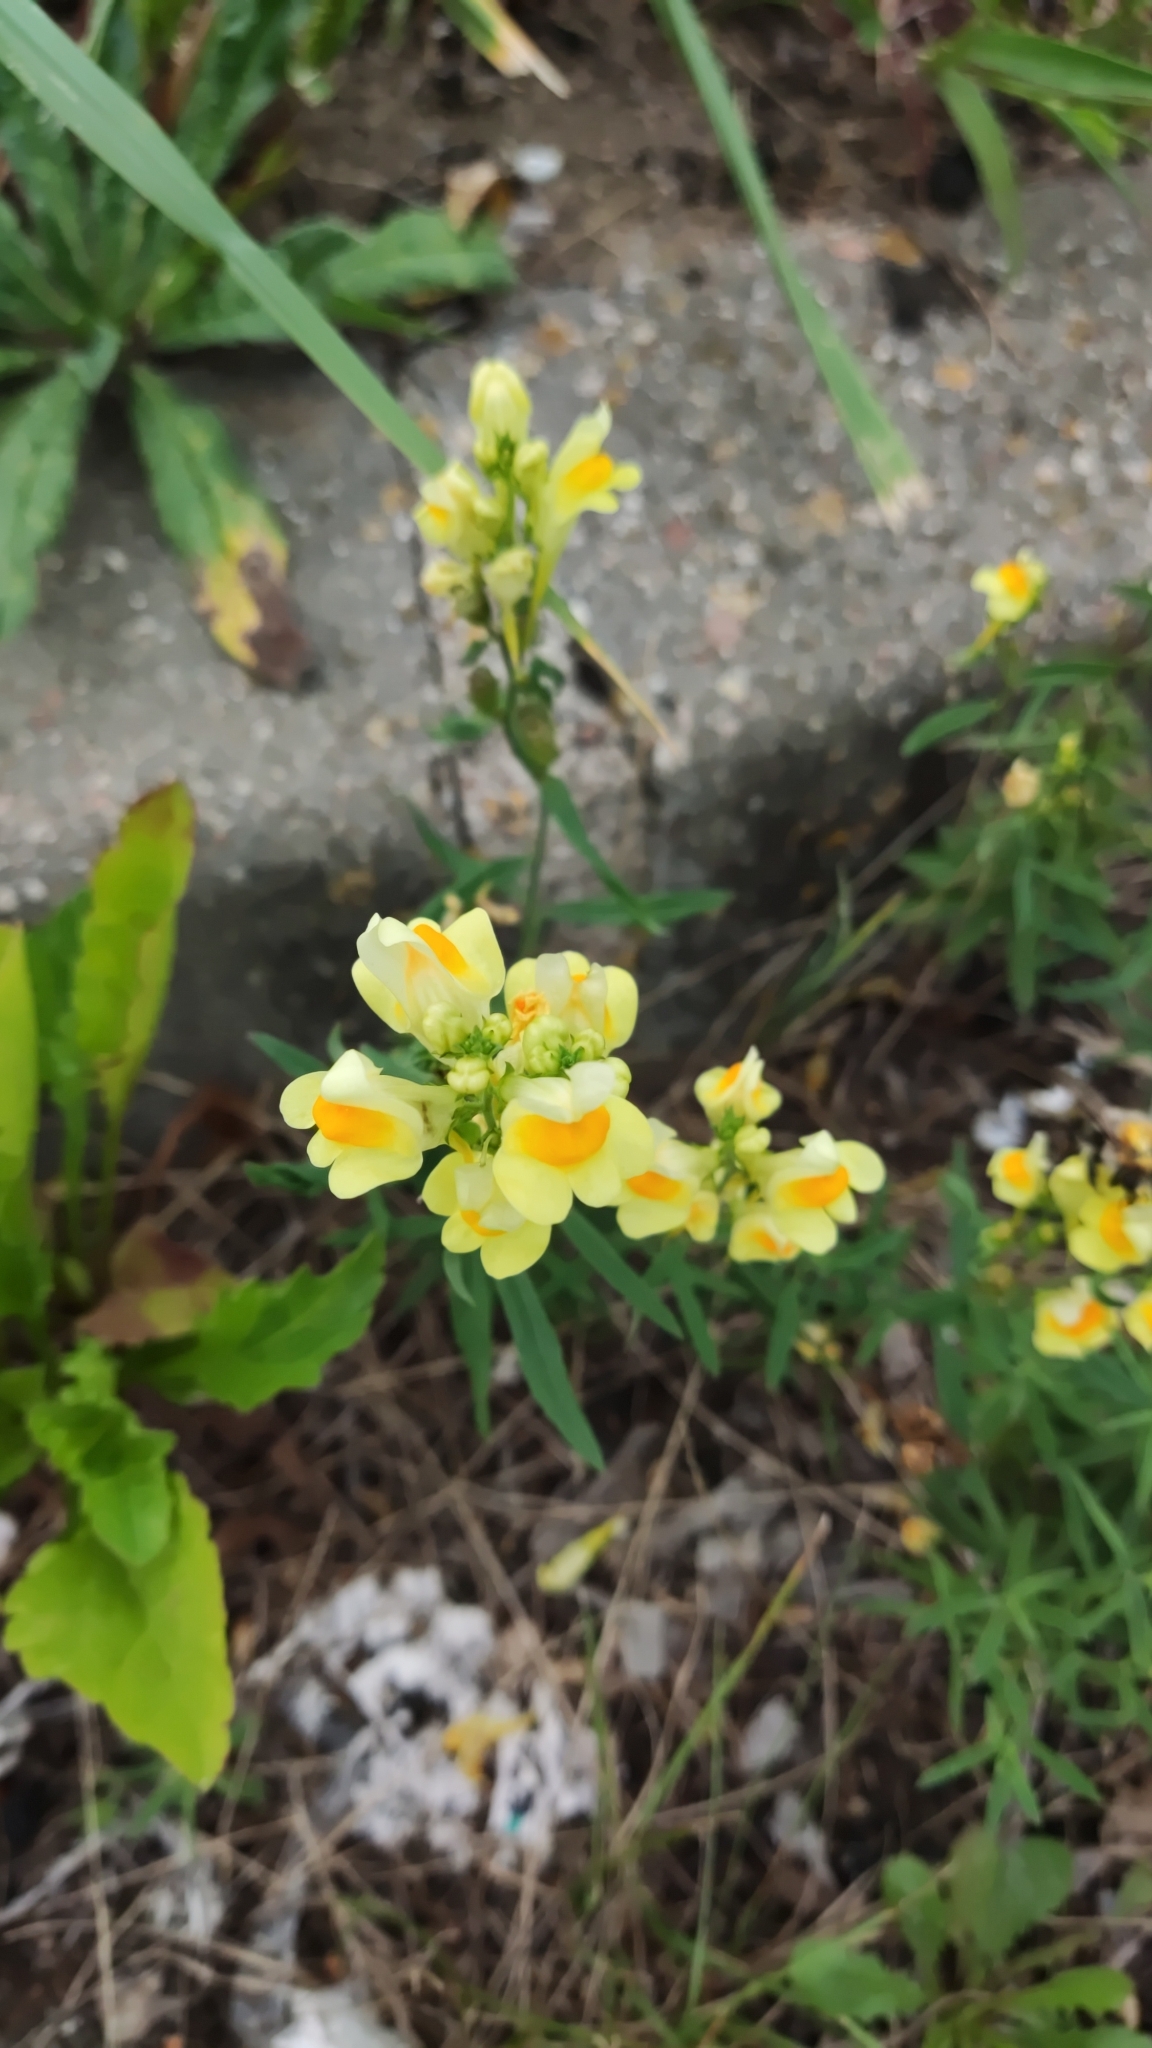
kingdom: Plantae
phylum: Tracheophyta
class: Magnoliopsida
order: Lamiales
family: Plantaginaceae
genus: Linaria
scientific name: Linaria vulgaris
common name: Butter and eggs
